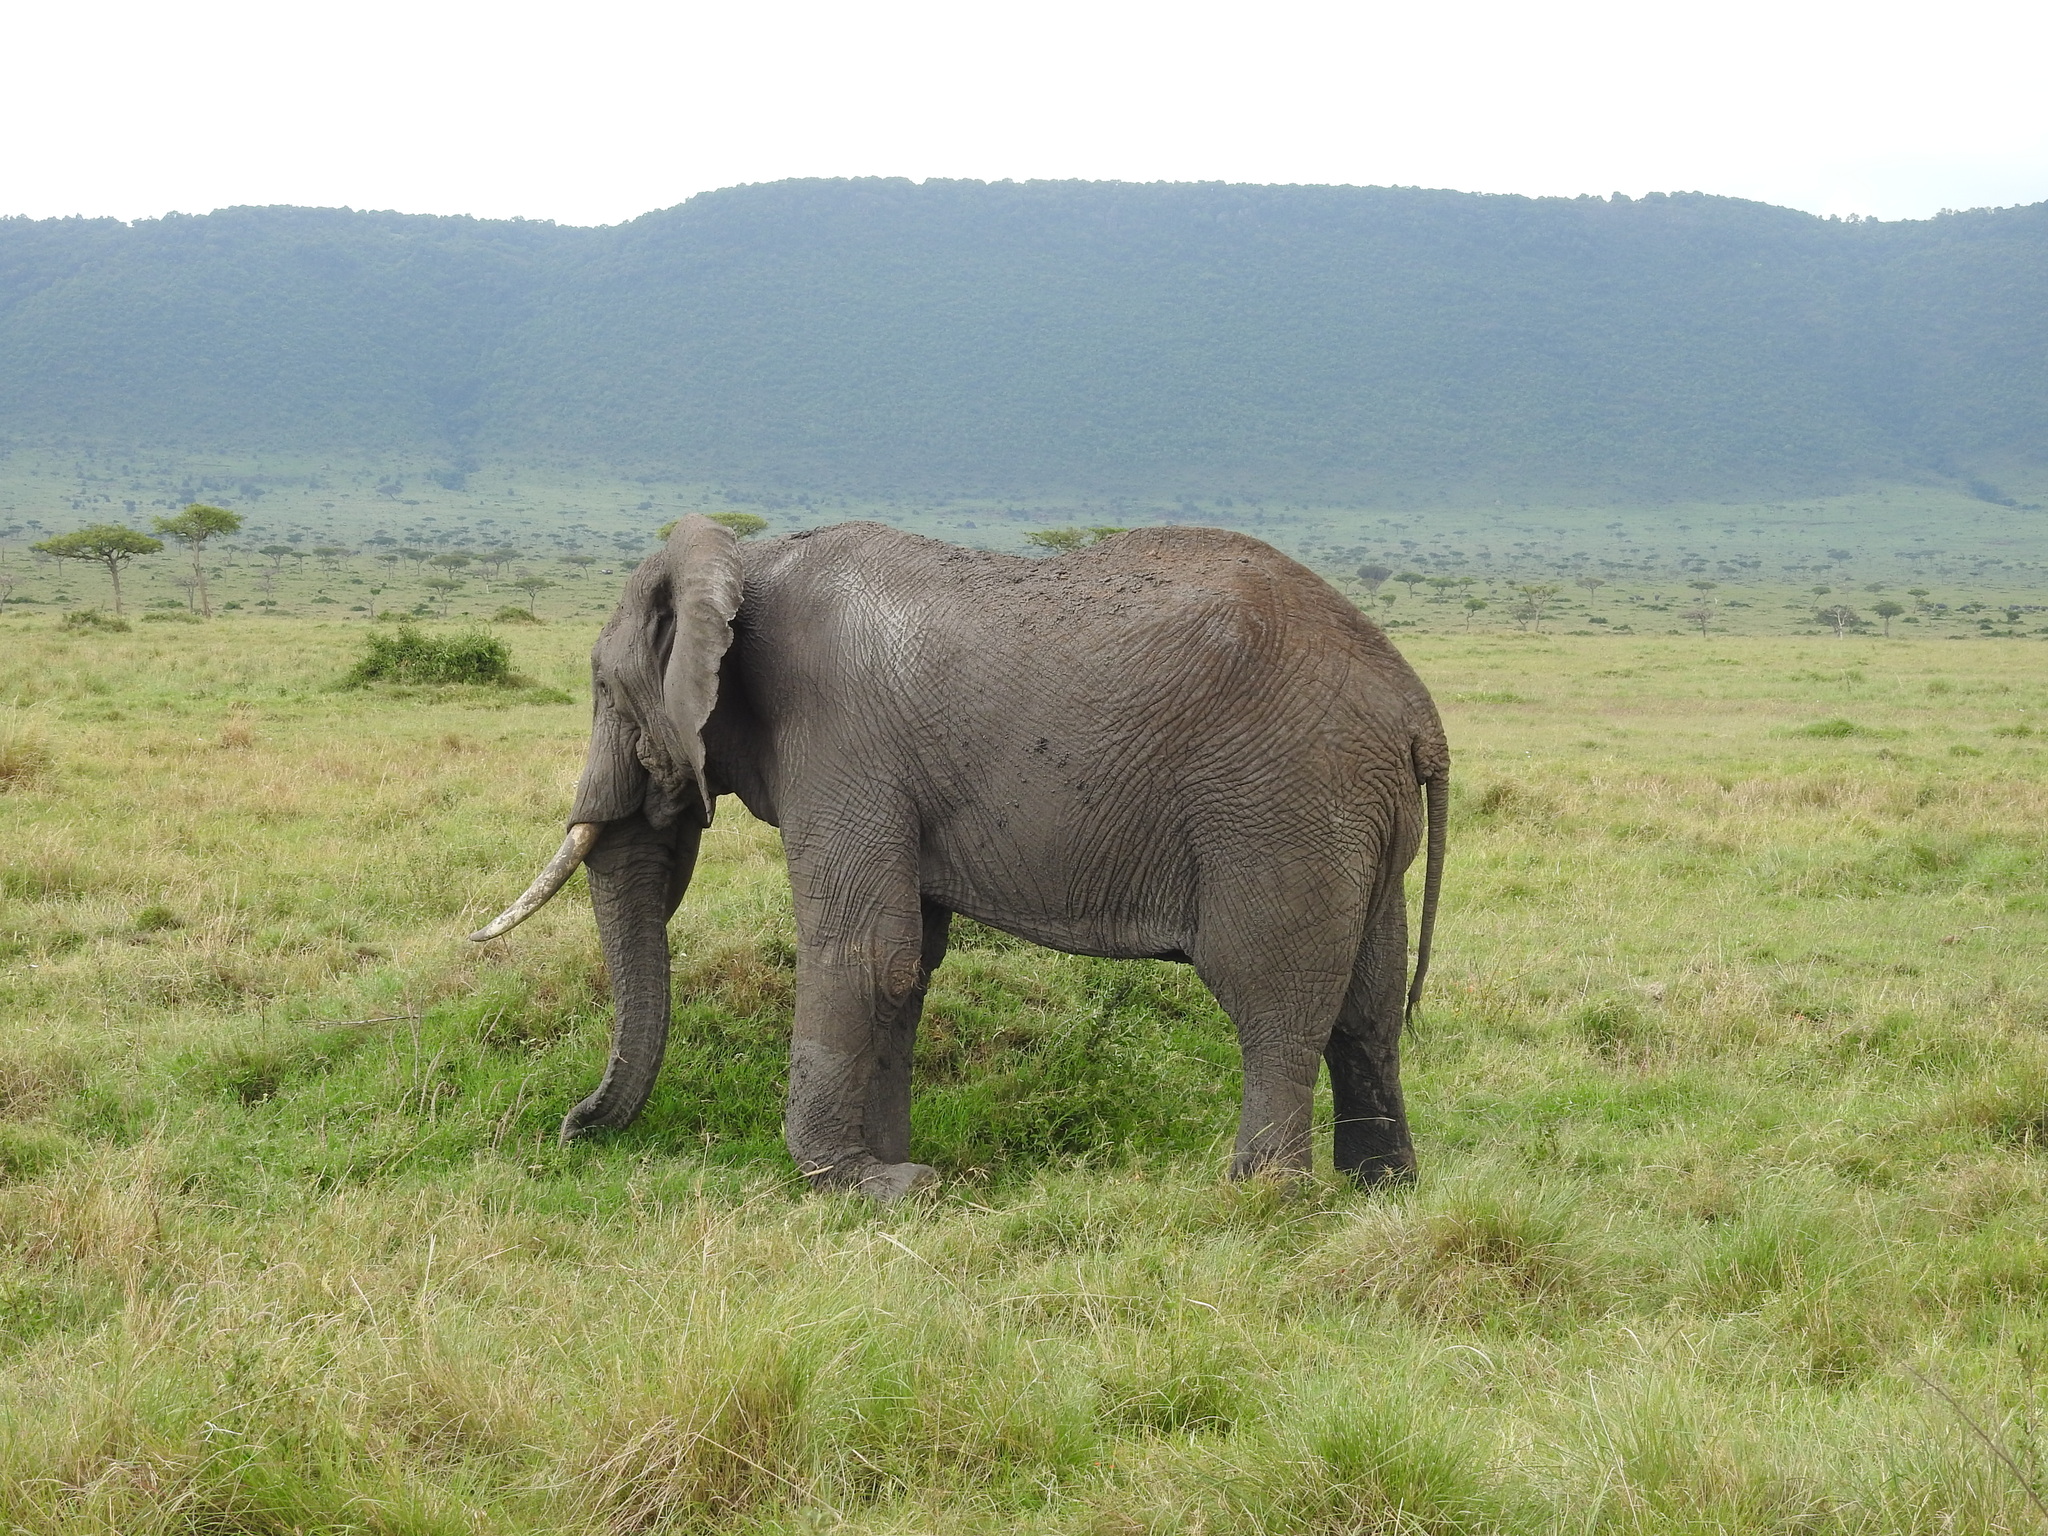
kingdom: Animalia
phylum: Chordata
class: Mammalia
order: Proboscidea
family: Elephantidae
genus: Loxodonta
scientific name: Loxodonta africana
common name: African elephant
